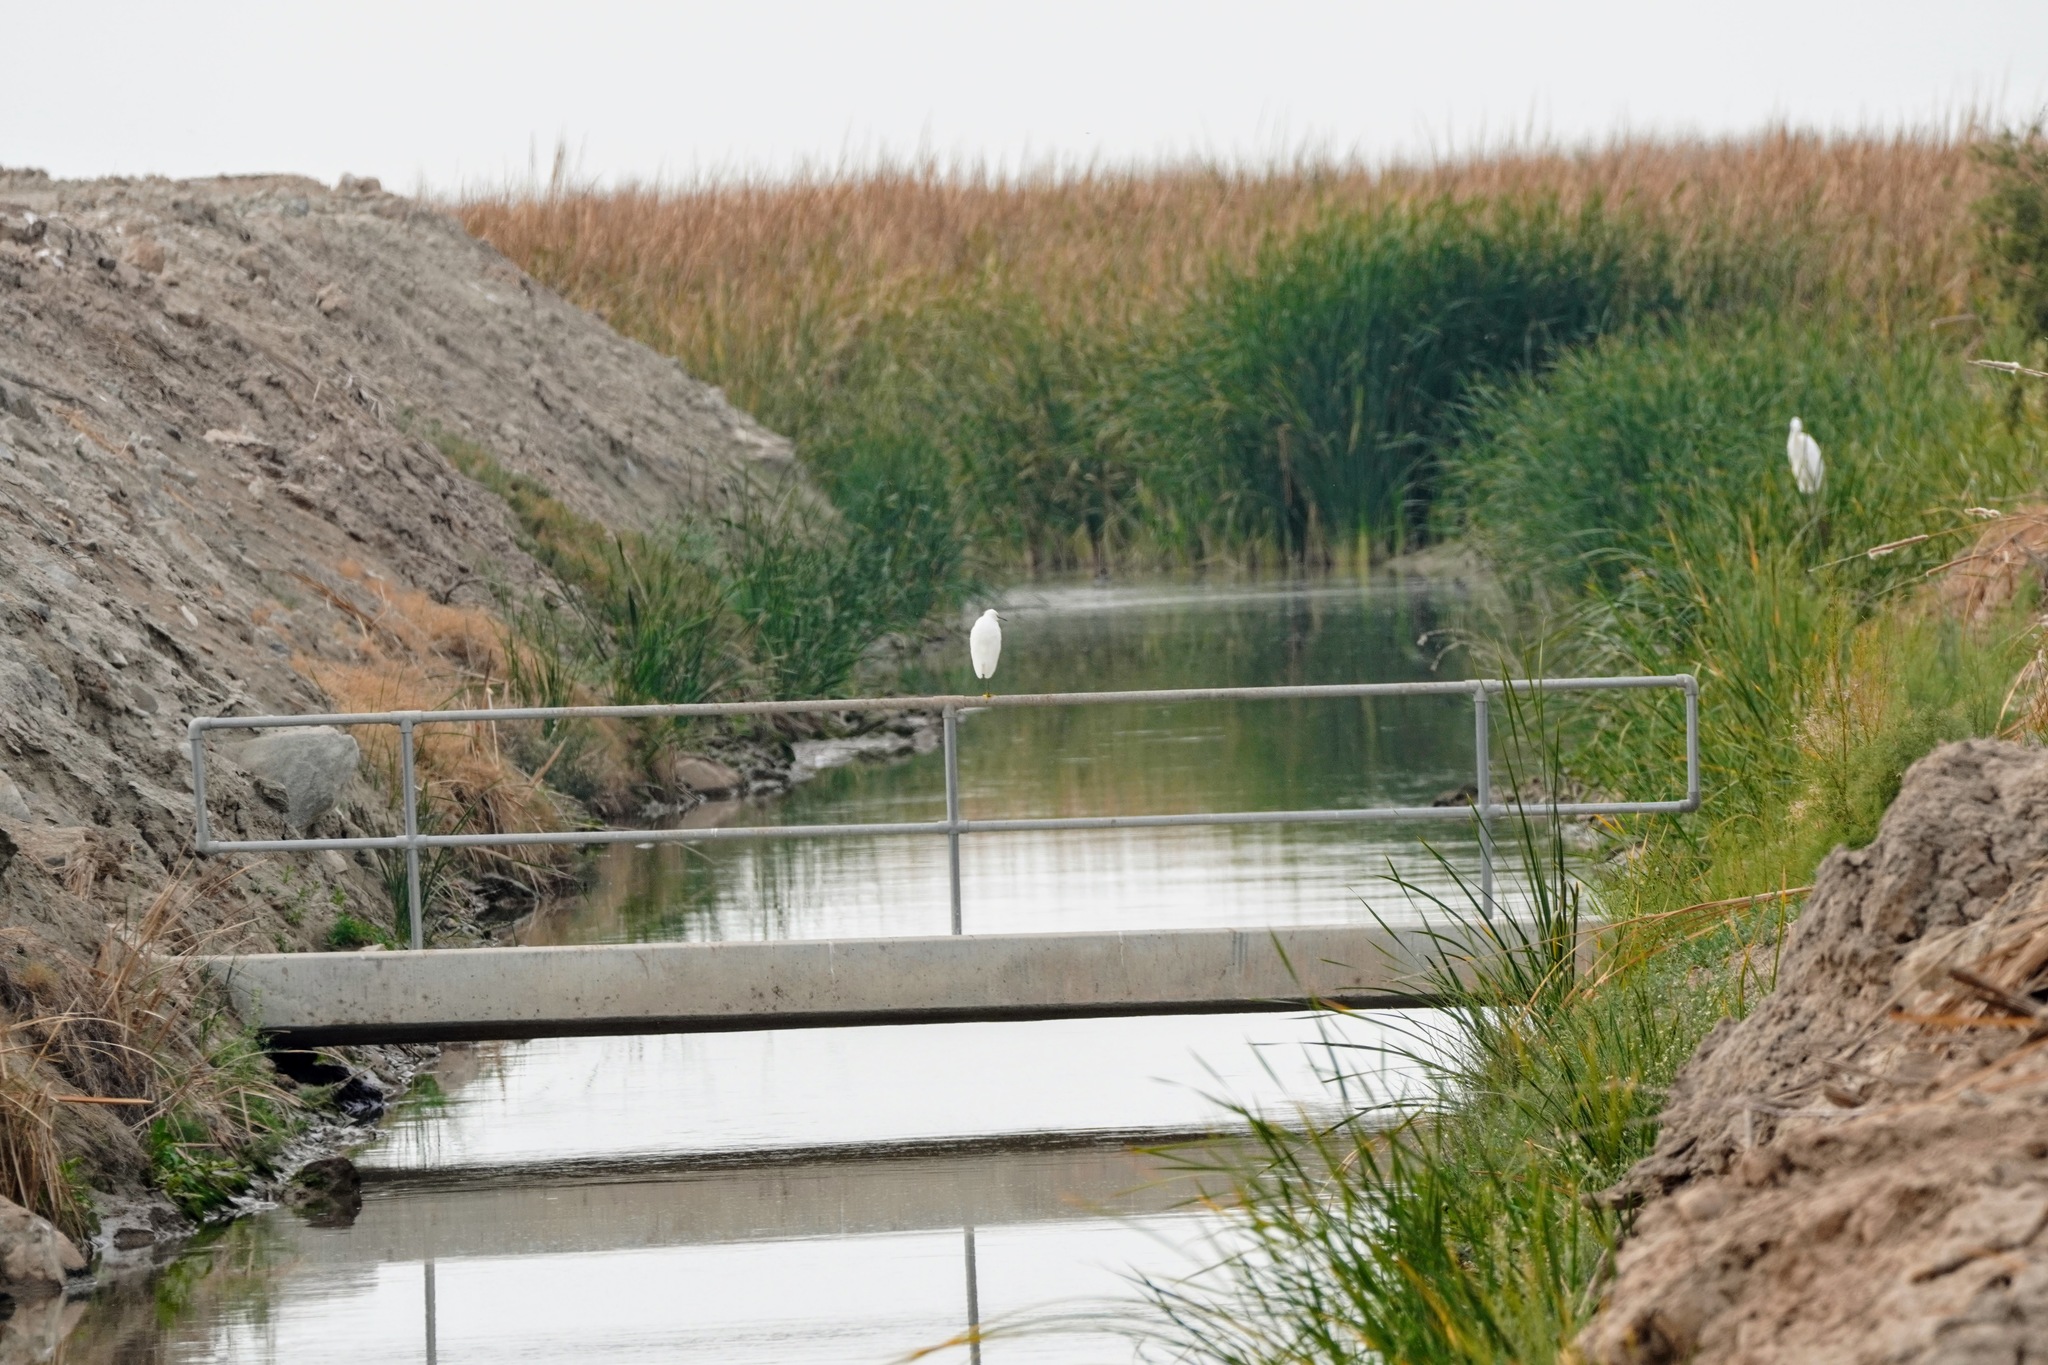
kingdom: Animalia
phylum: Chordata
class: Aves
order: Pelecaniformes
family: Ardeidae
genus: Egretta
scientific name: Egretta thula
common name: Snowy egret
